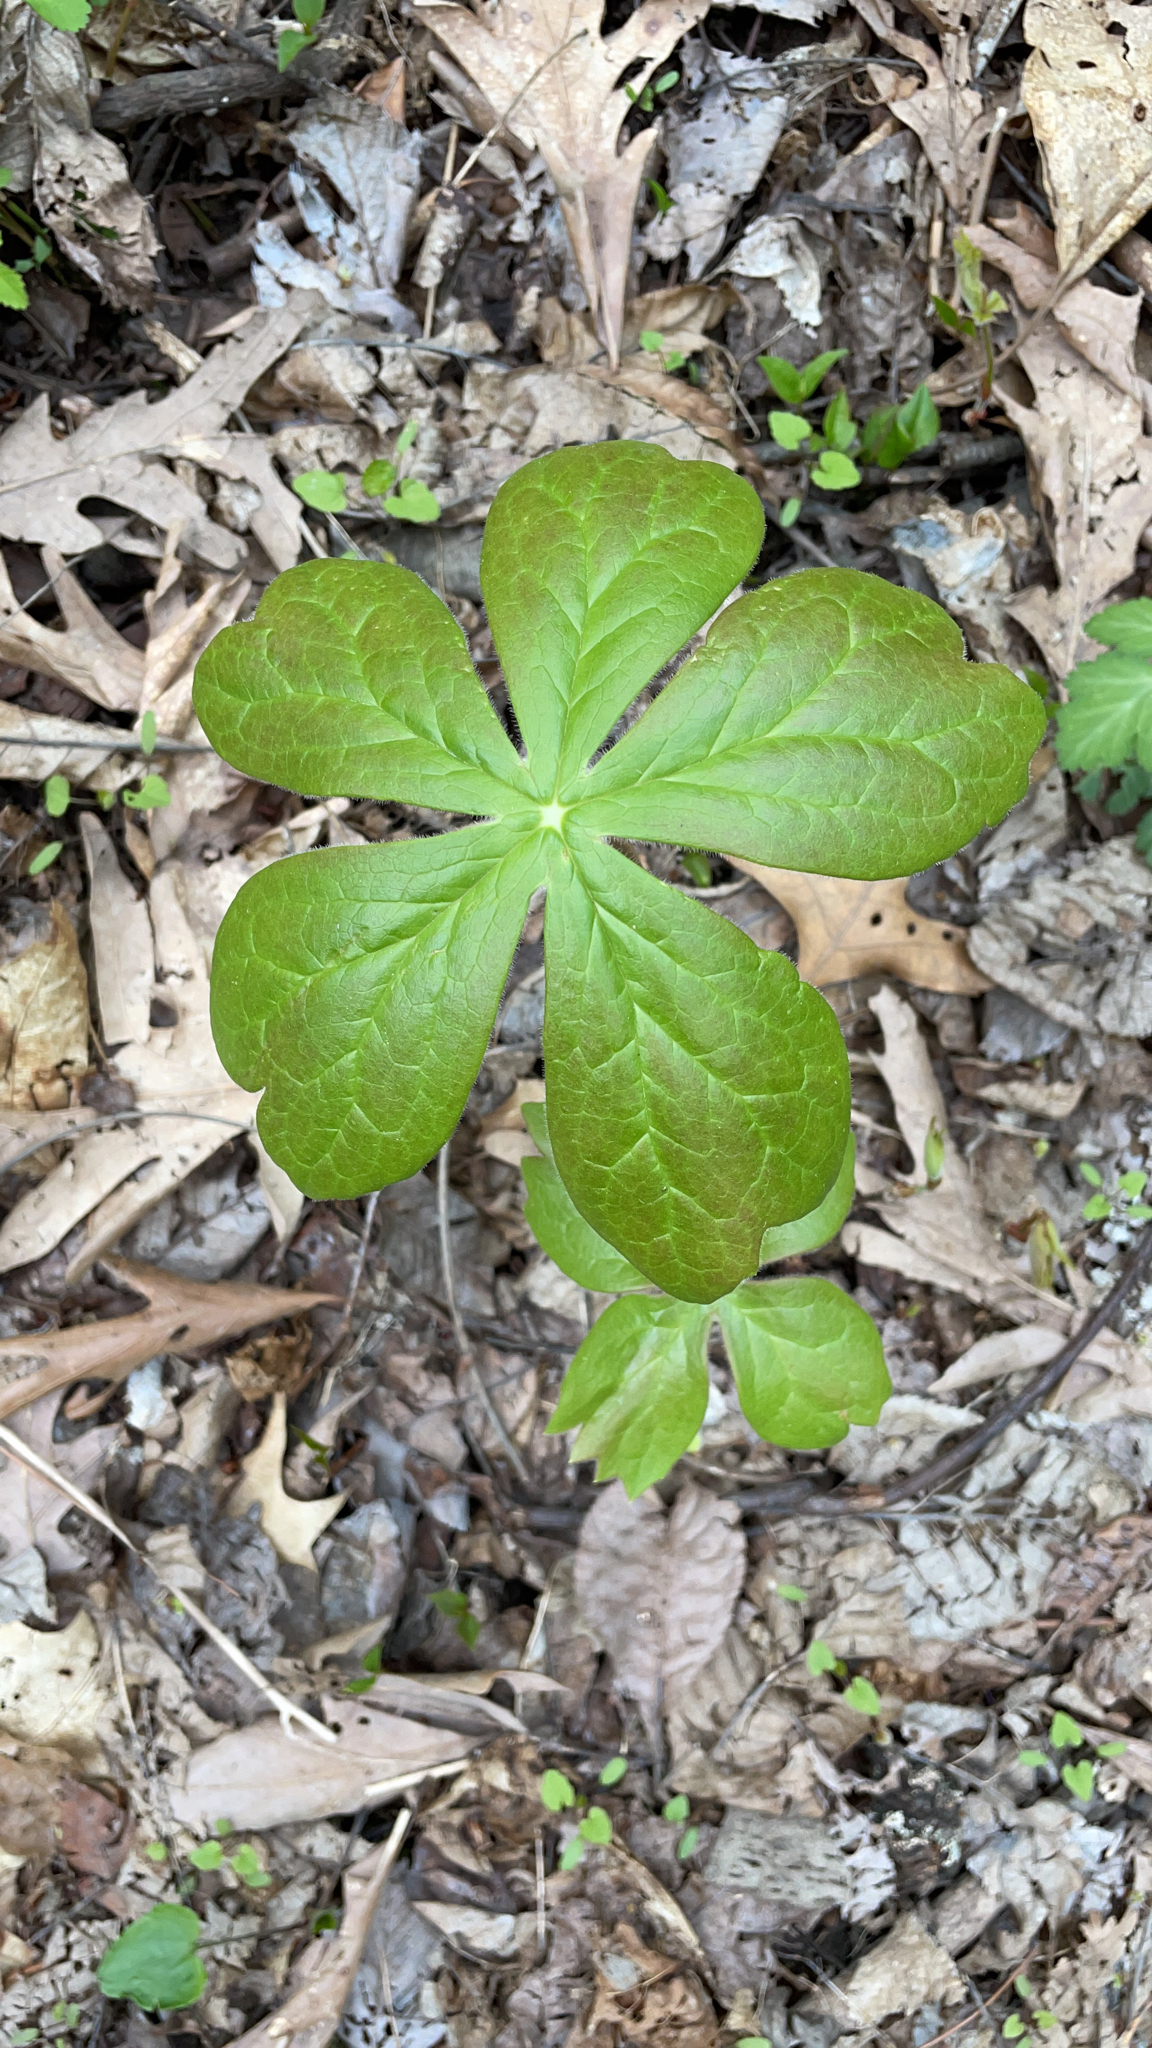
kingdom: Plantae
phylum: Tracheophyta
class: Magnoliopsida
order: Ranunculales
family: Berberidaceae
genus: Podophyllum
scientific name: Podophyllum peltatum
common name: Wild mandrake
